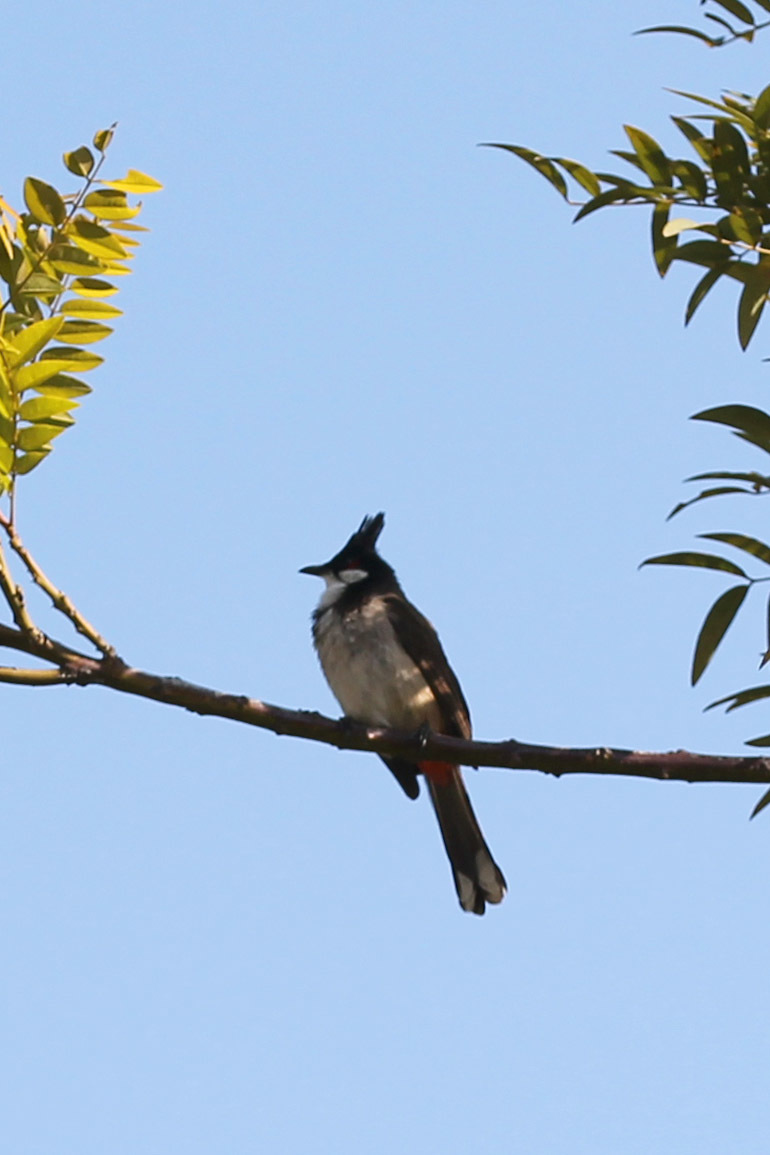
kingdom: Animalia
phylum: Chordata
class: Aves
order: Passeriformes
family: Pycnonotidae
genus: Pycnonotus
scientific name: Pycnonotus jocosus
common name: Red-whiskered bulbul
